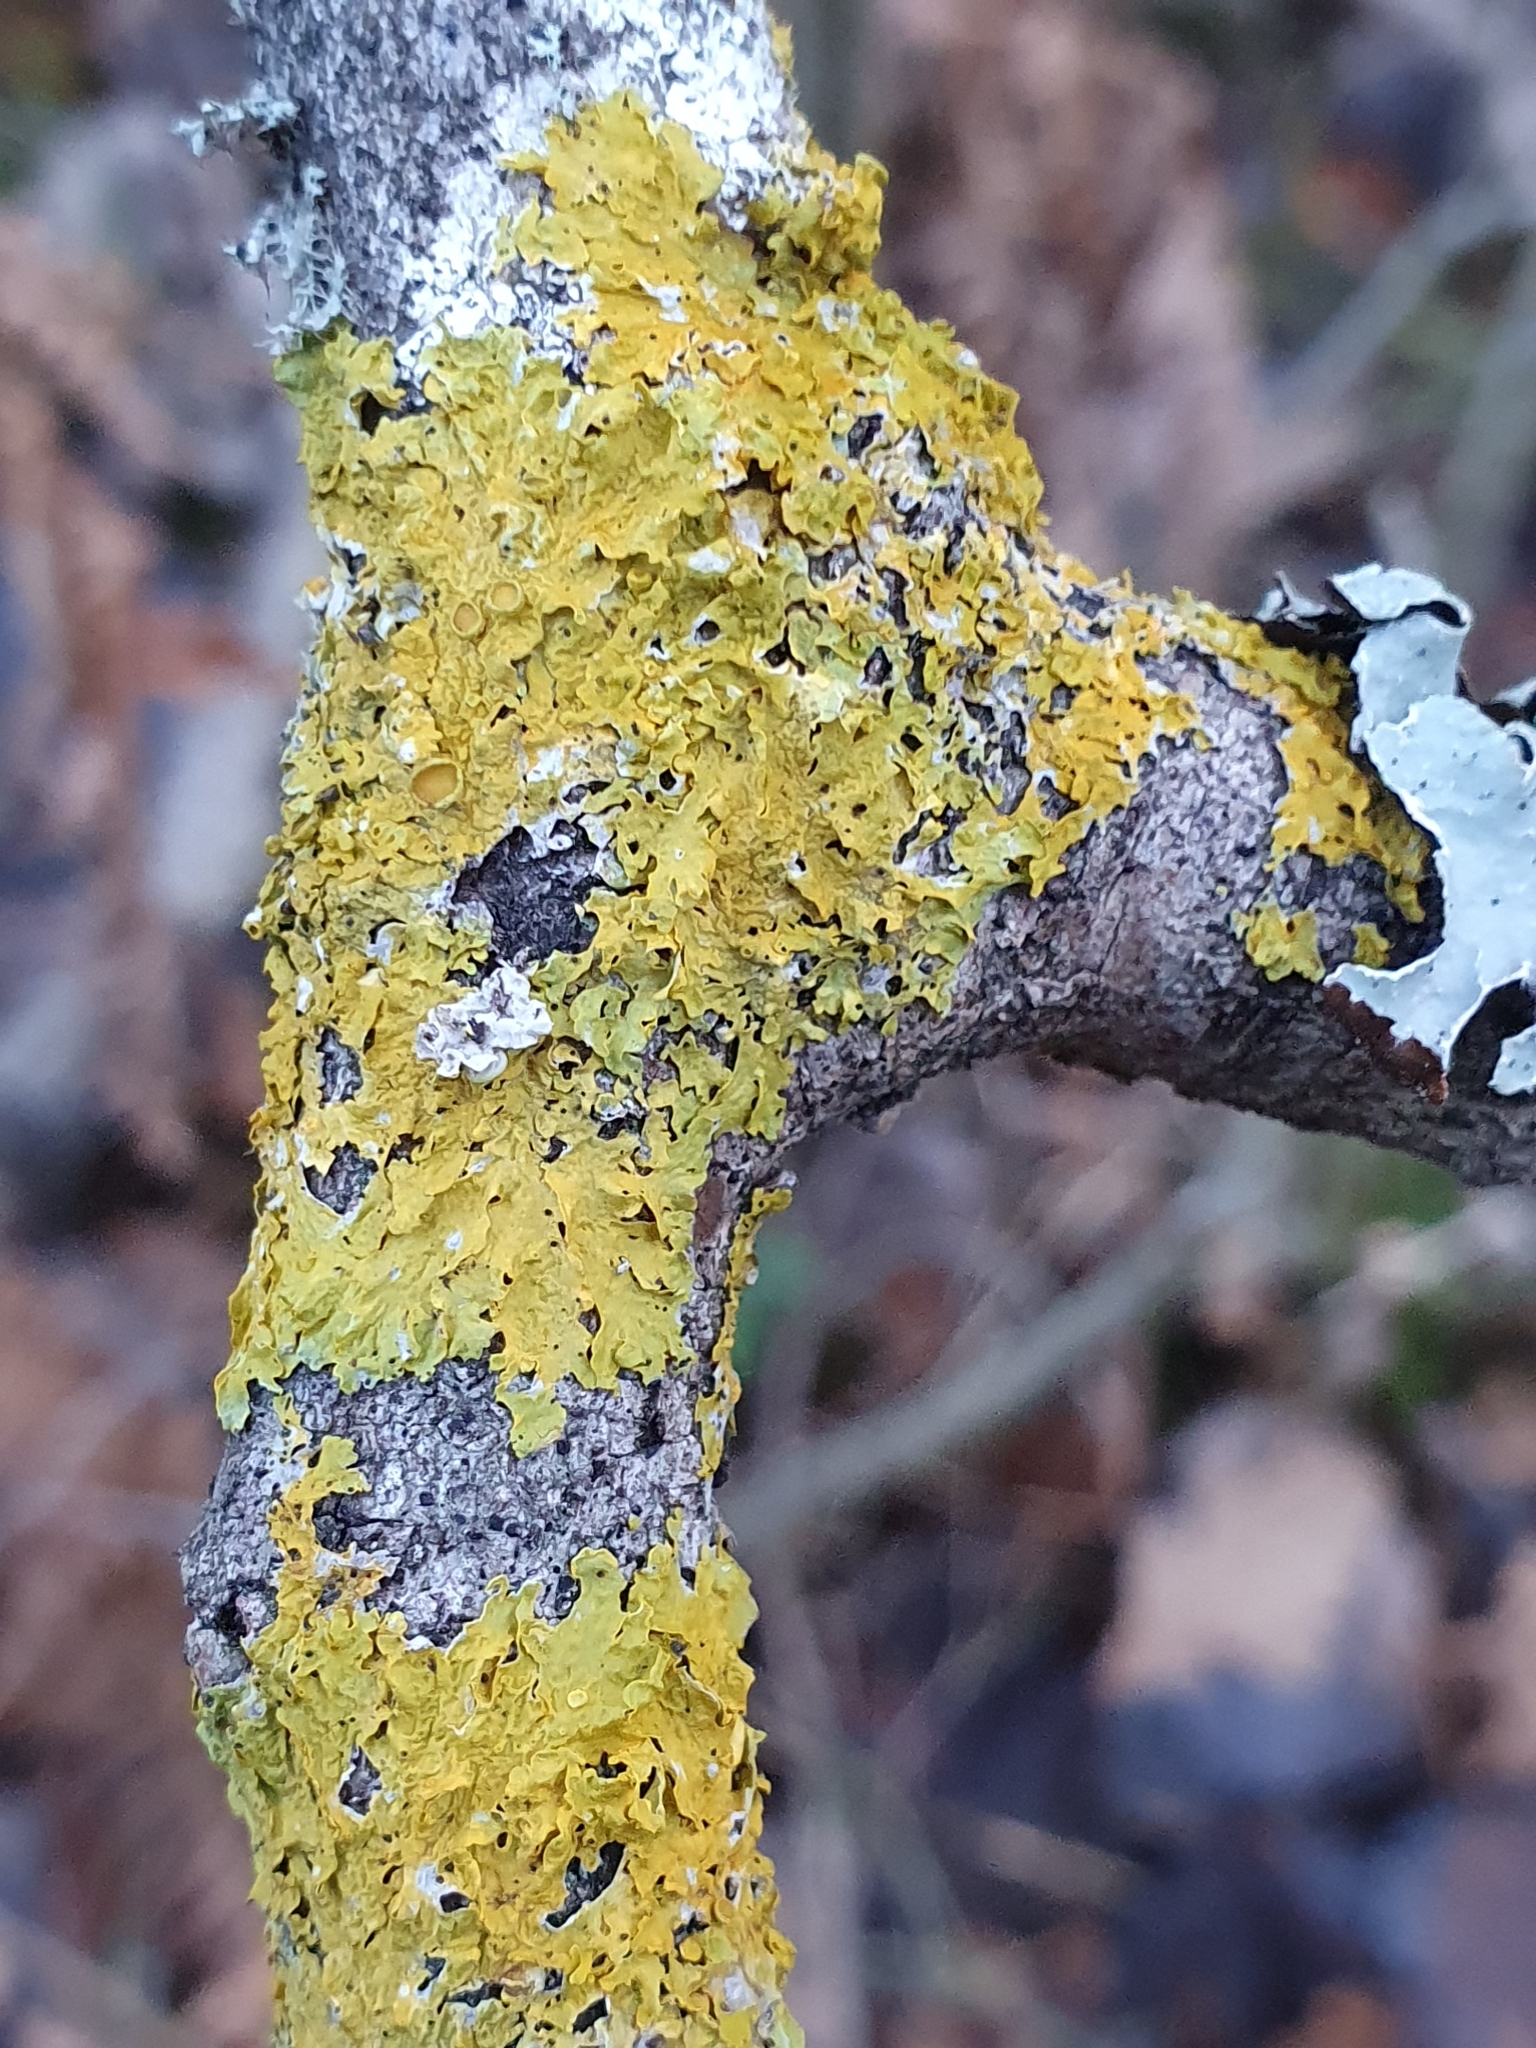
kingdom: Fungi
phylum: Ascomycota
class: Lecanoromycetes
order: Teloschistales
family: Teloschistaceae
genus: Xanthoria
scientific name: Xanthoria parietina
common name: Common orange lichen
